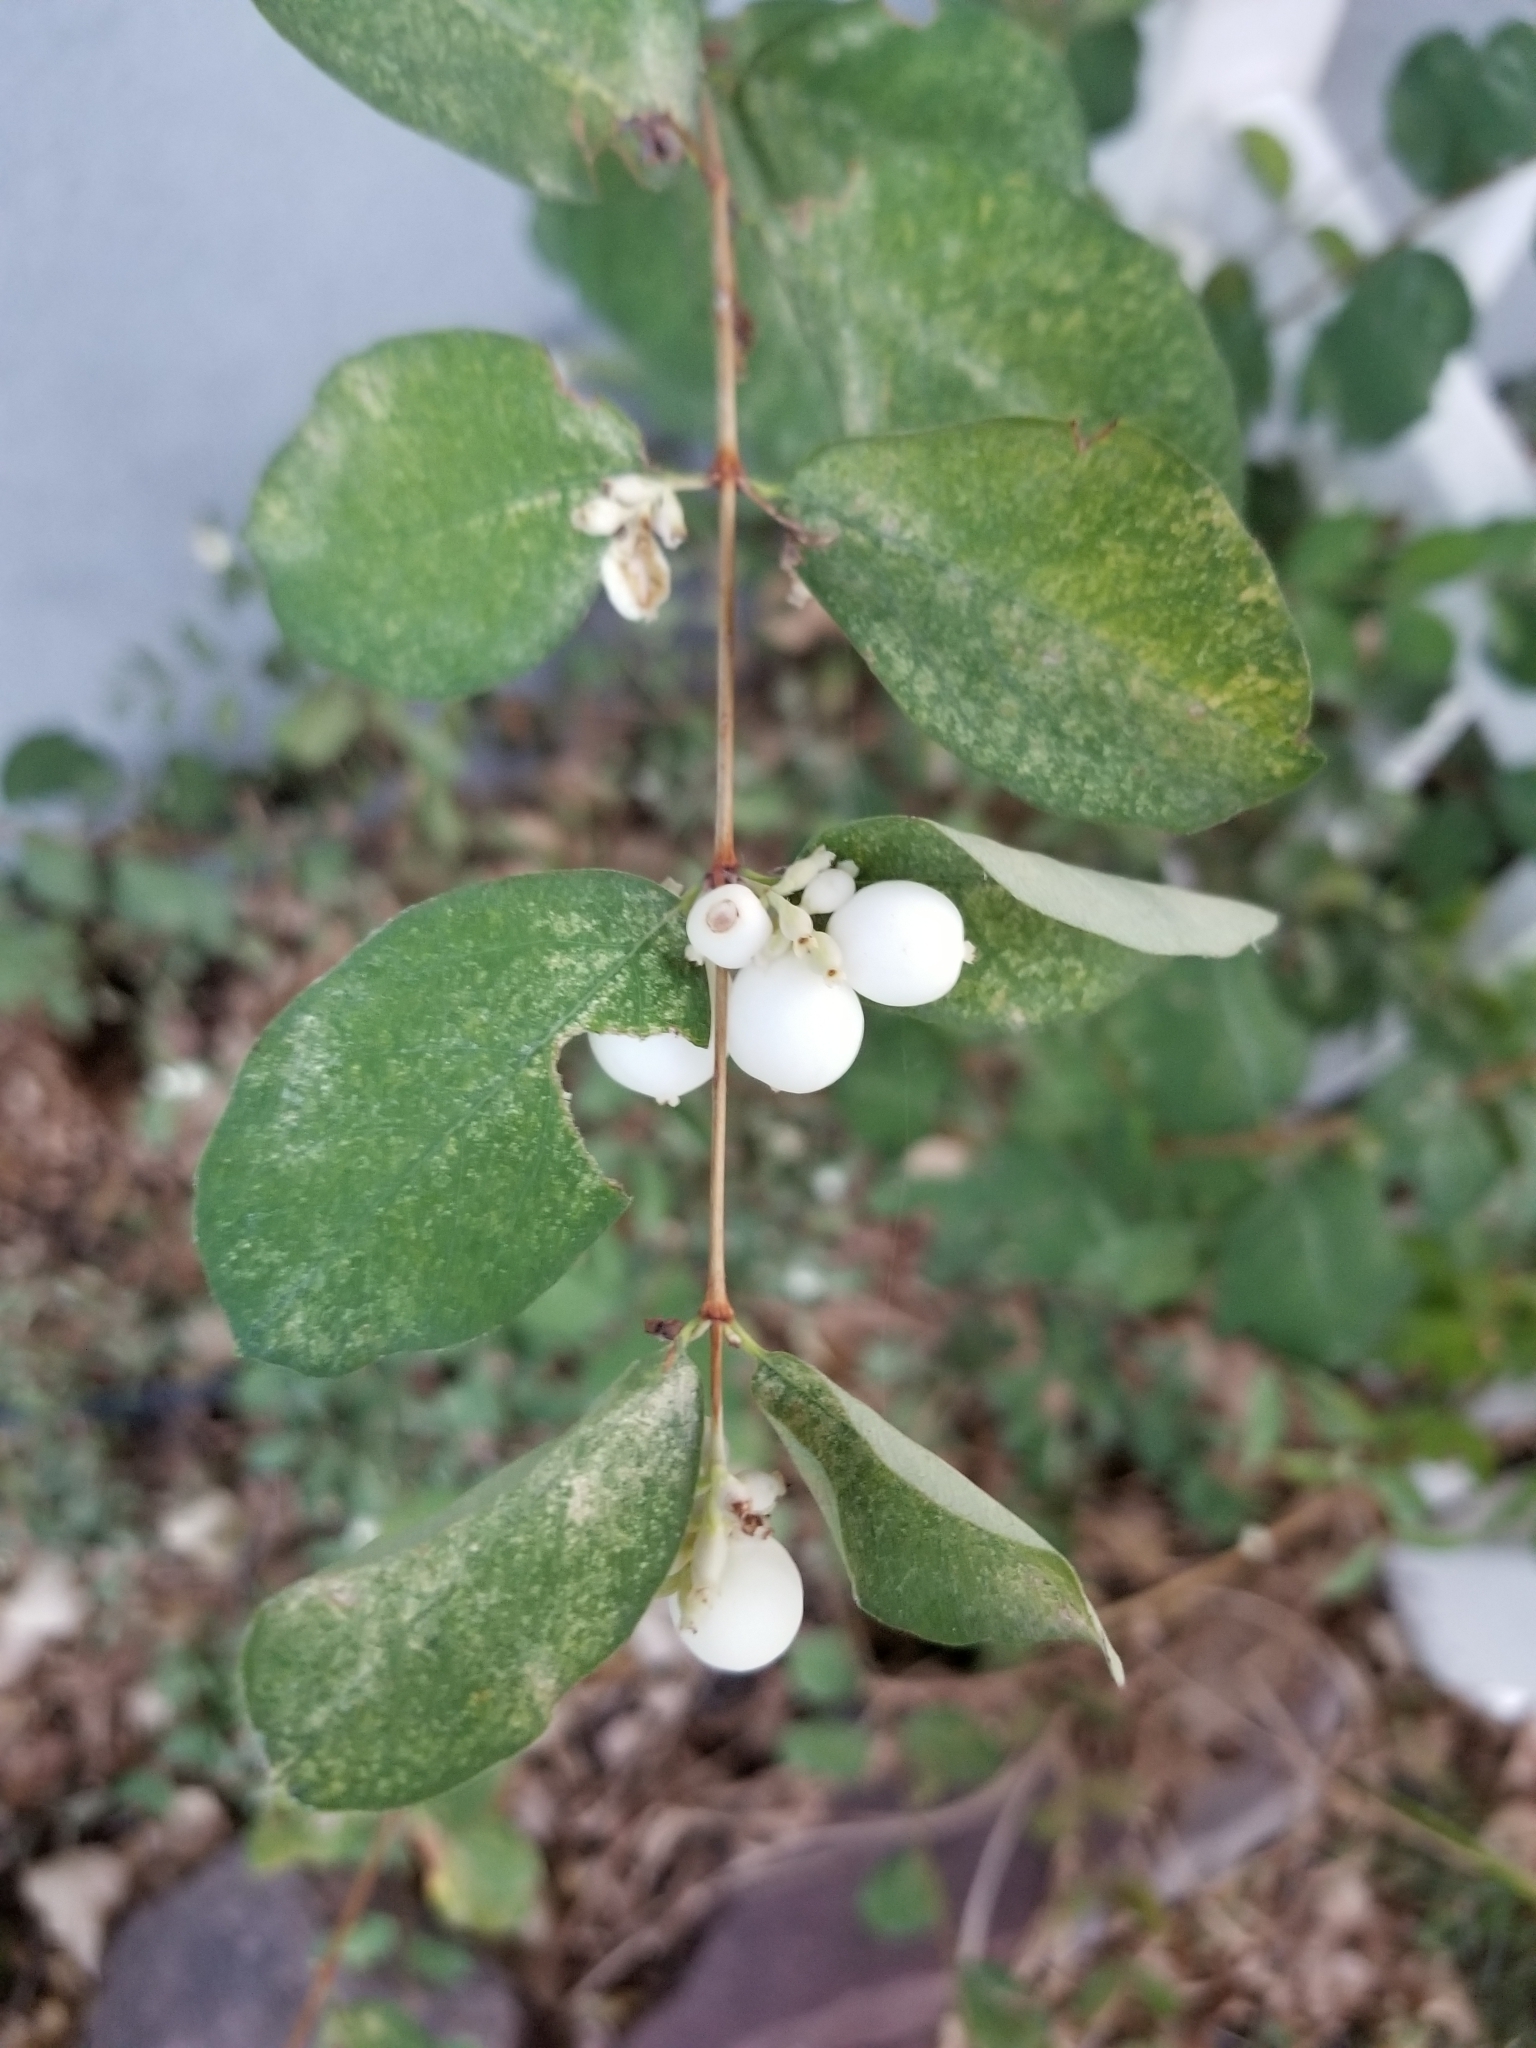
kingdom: Plantae
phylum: Tracheophyta
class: Magnoliopsida
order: Dipsacales
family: Caprifoliaceae
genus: Symphoricarpos
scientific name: Symphoricarpos albus
